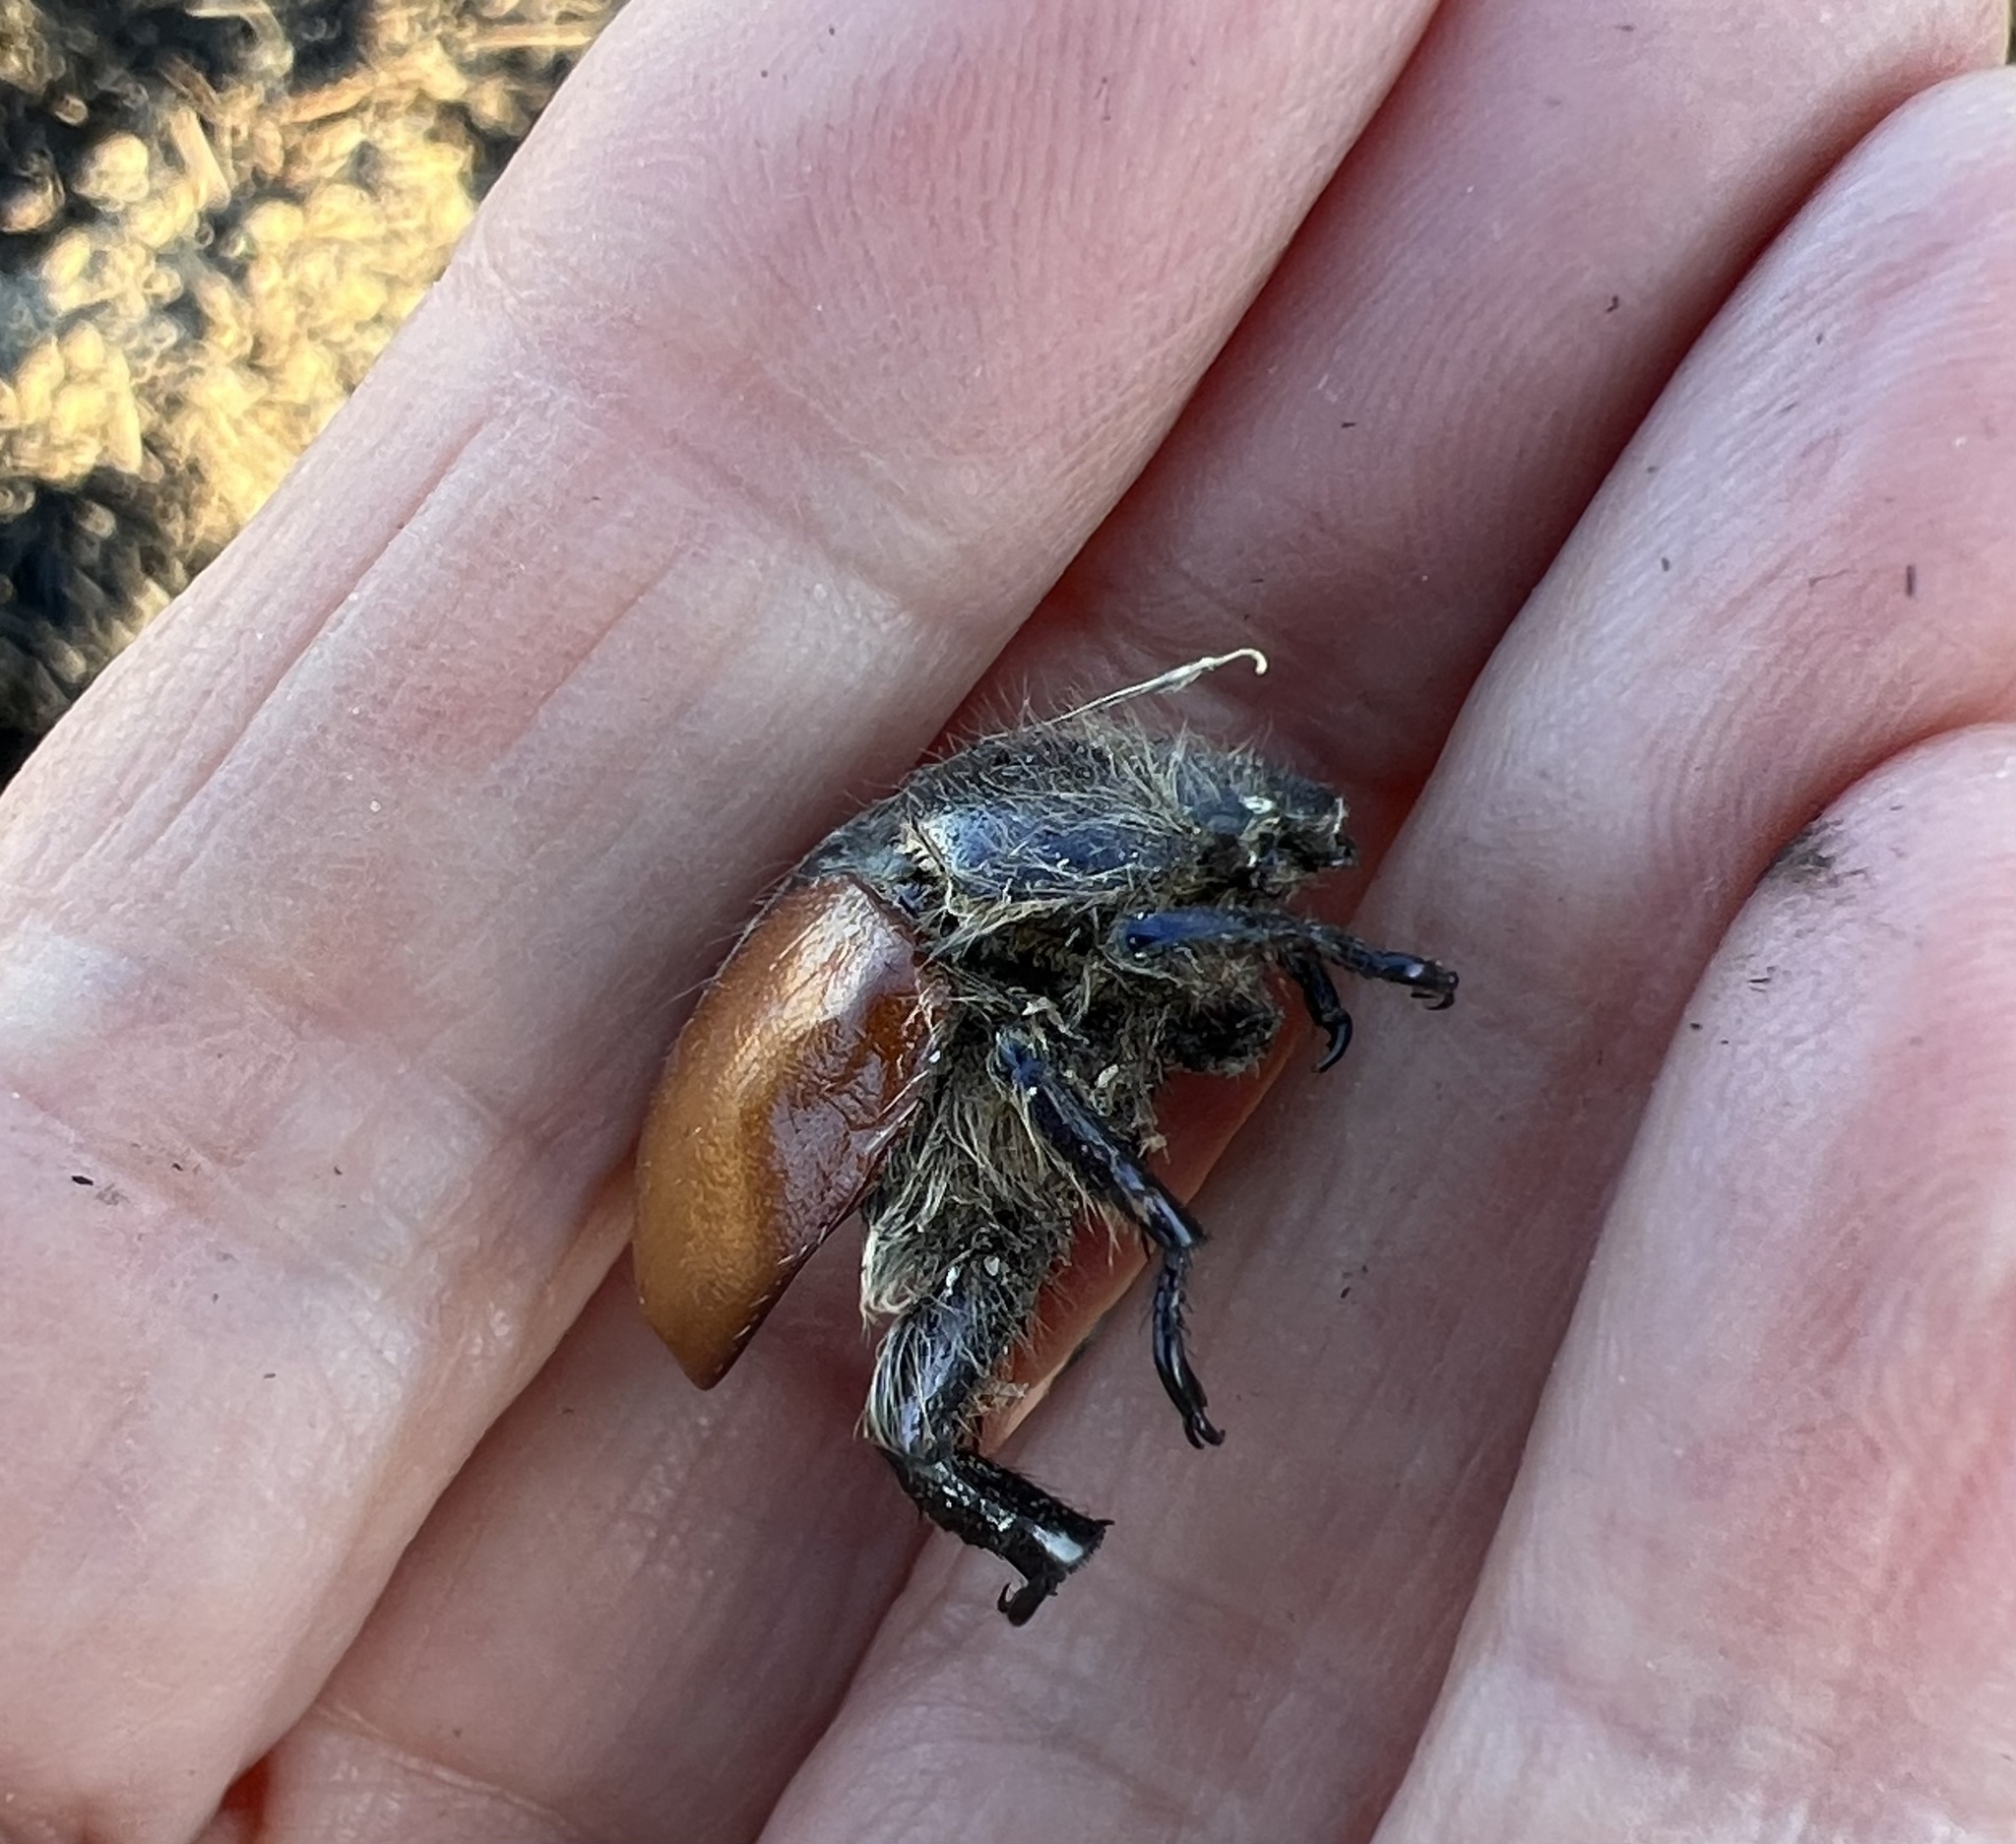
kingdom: Animalia
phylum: Arthropoda
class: Insecta
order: Coleoptera
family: Scarabaeidae
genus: Paracotalpa
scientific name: Paracotalpa ursina
